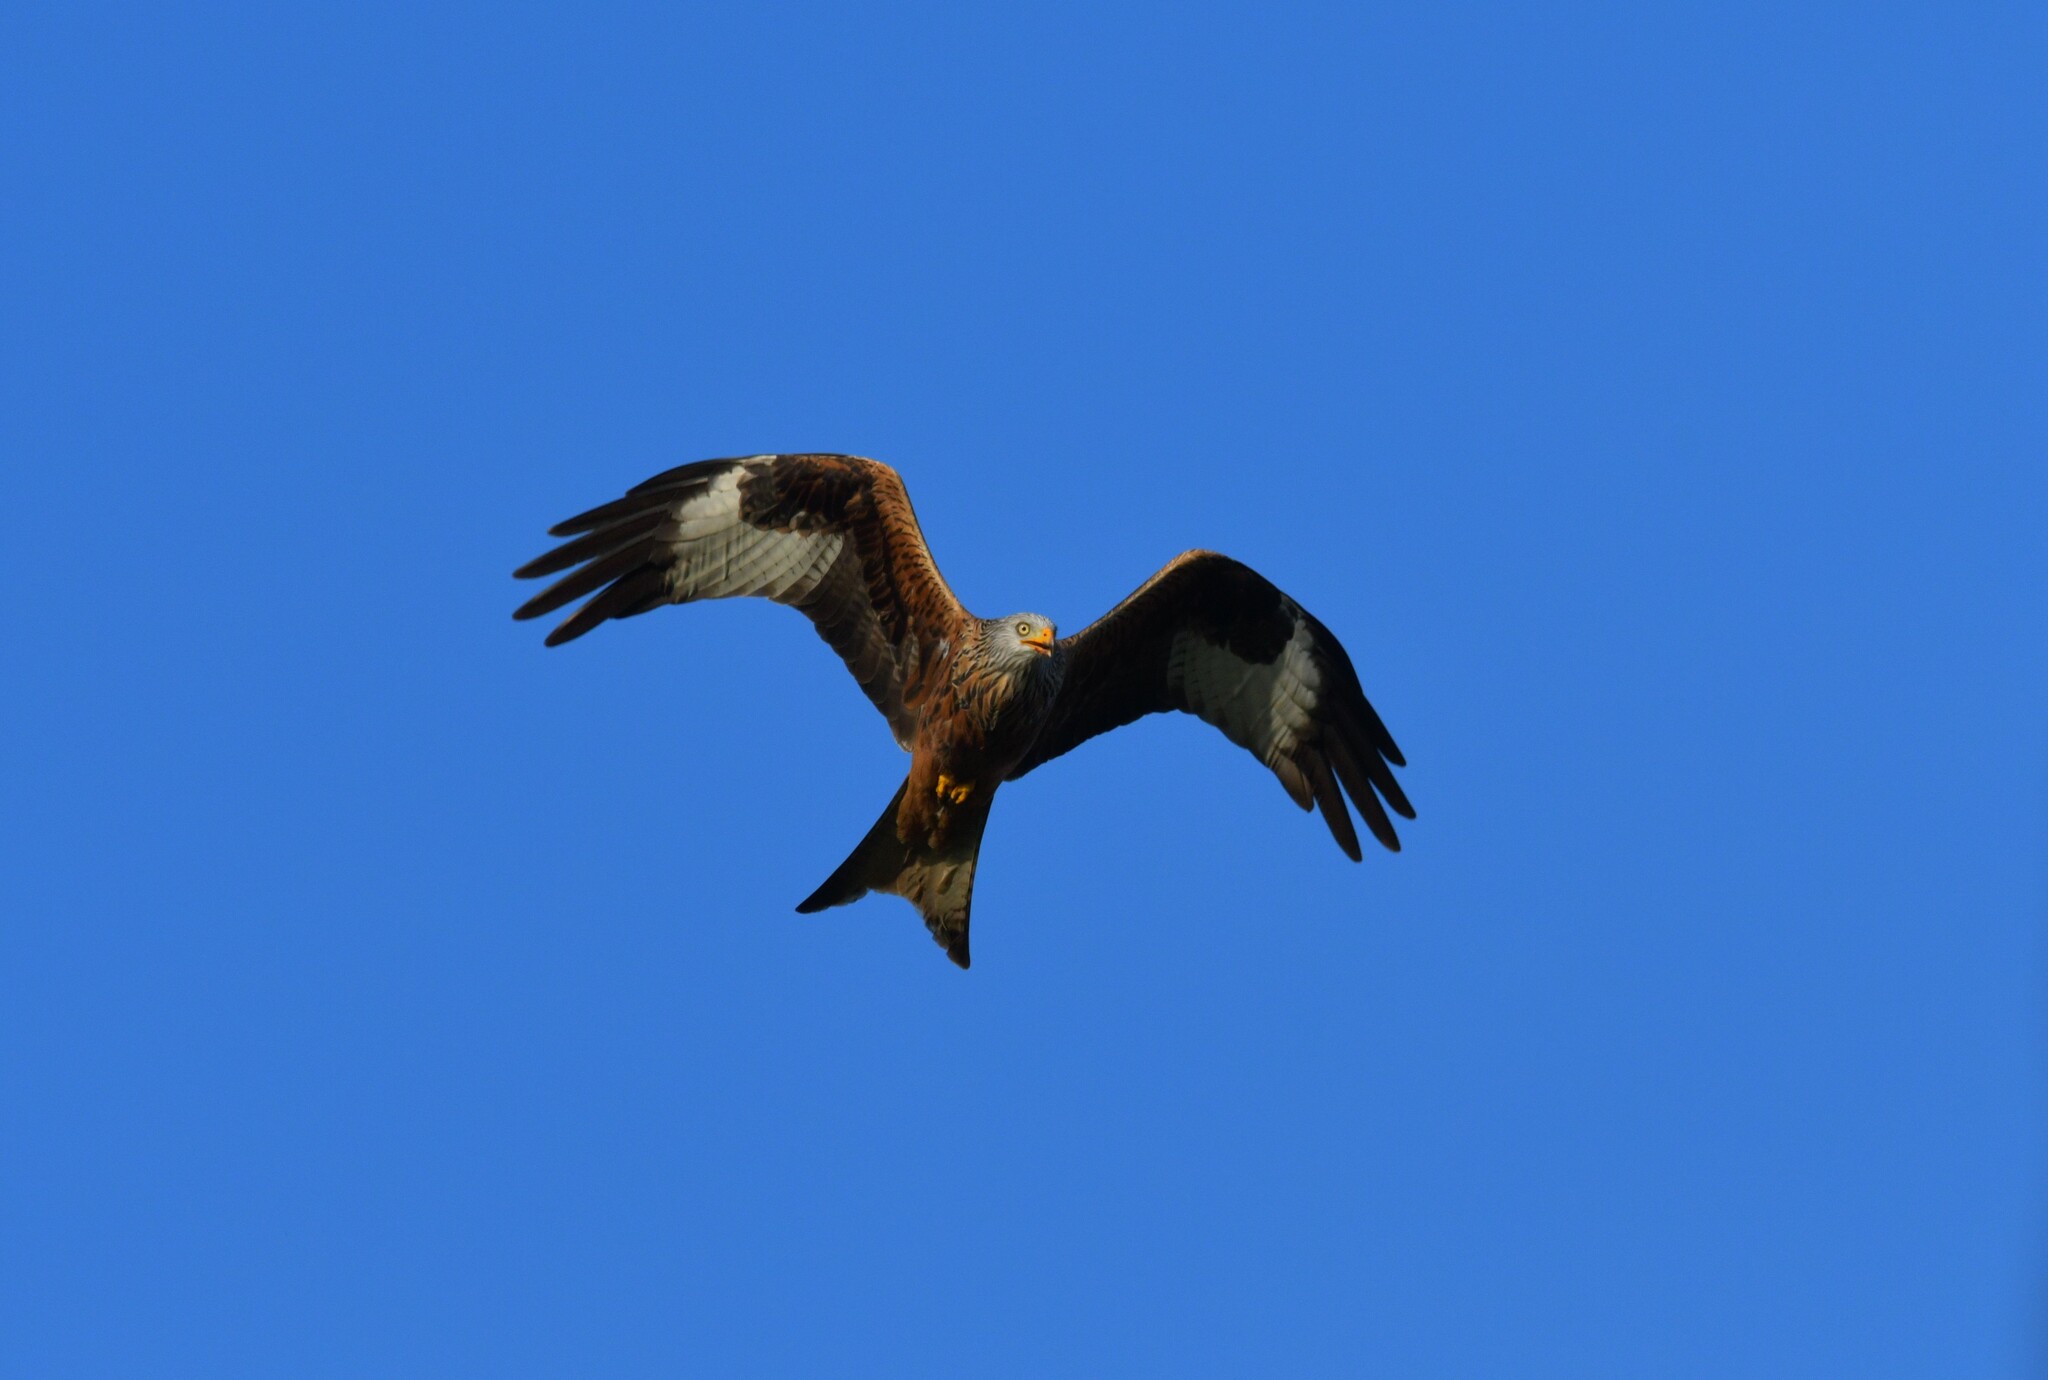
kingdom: Animalia
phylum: Chordata
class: Aves
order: Accipitriformes
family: Accipitridae
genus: Milvus
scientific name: Milvus milvus
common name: Red kite
